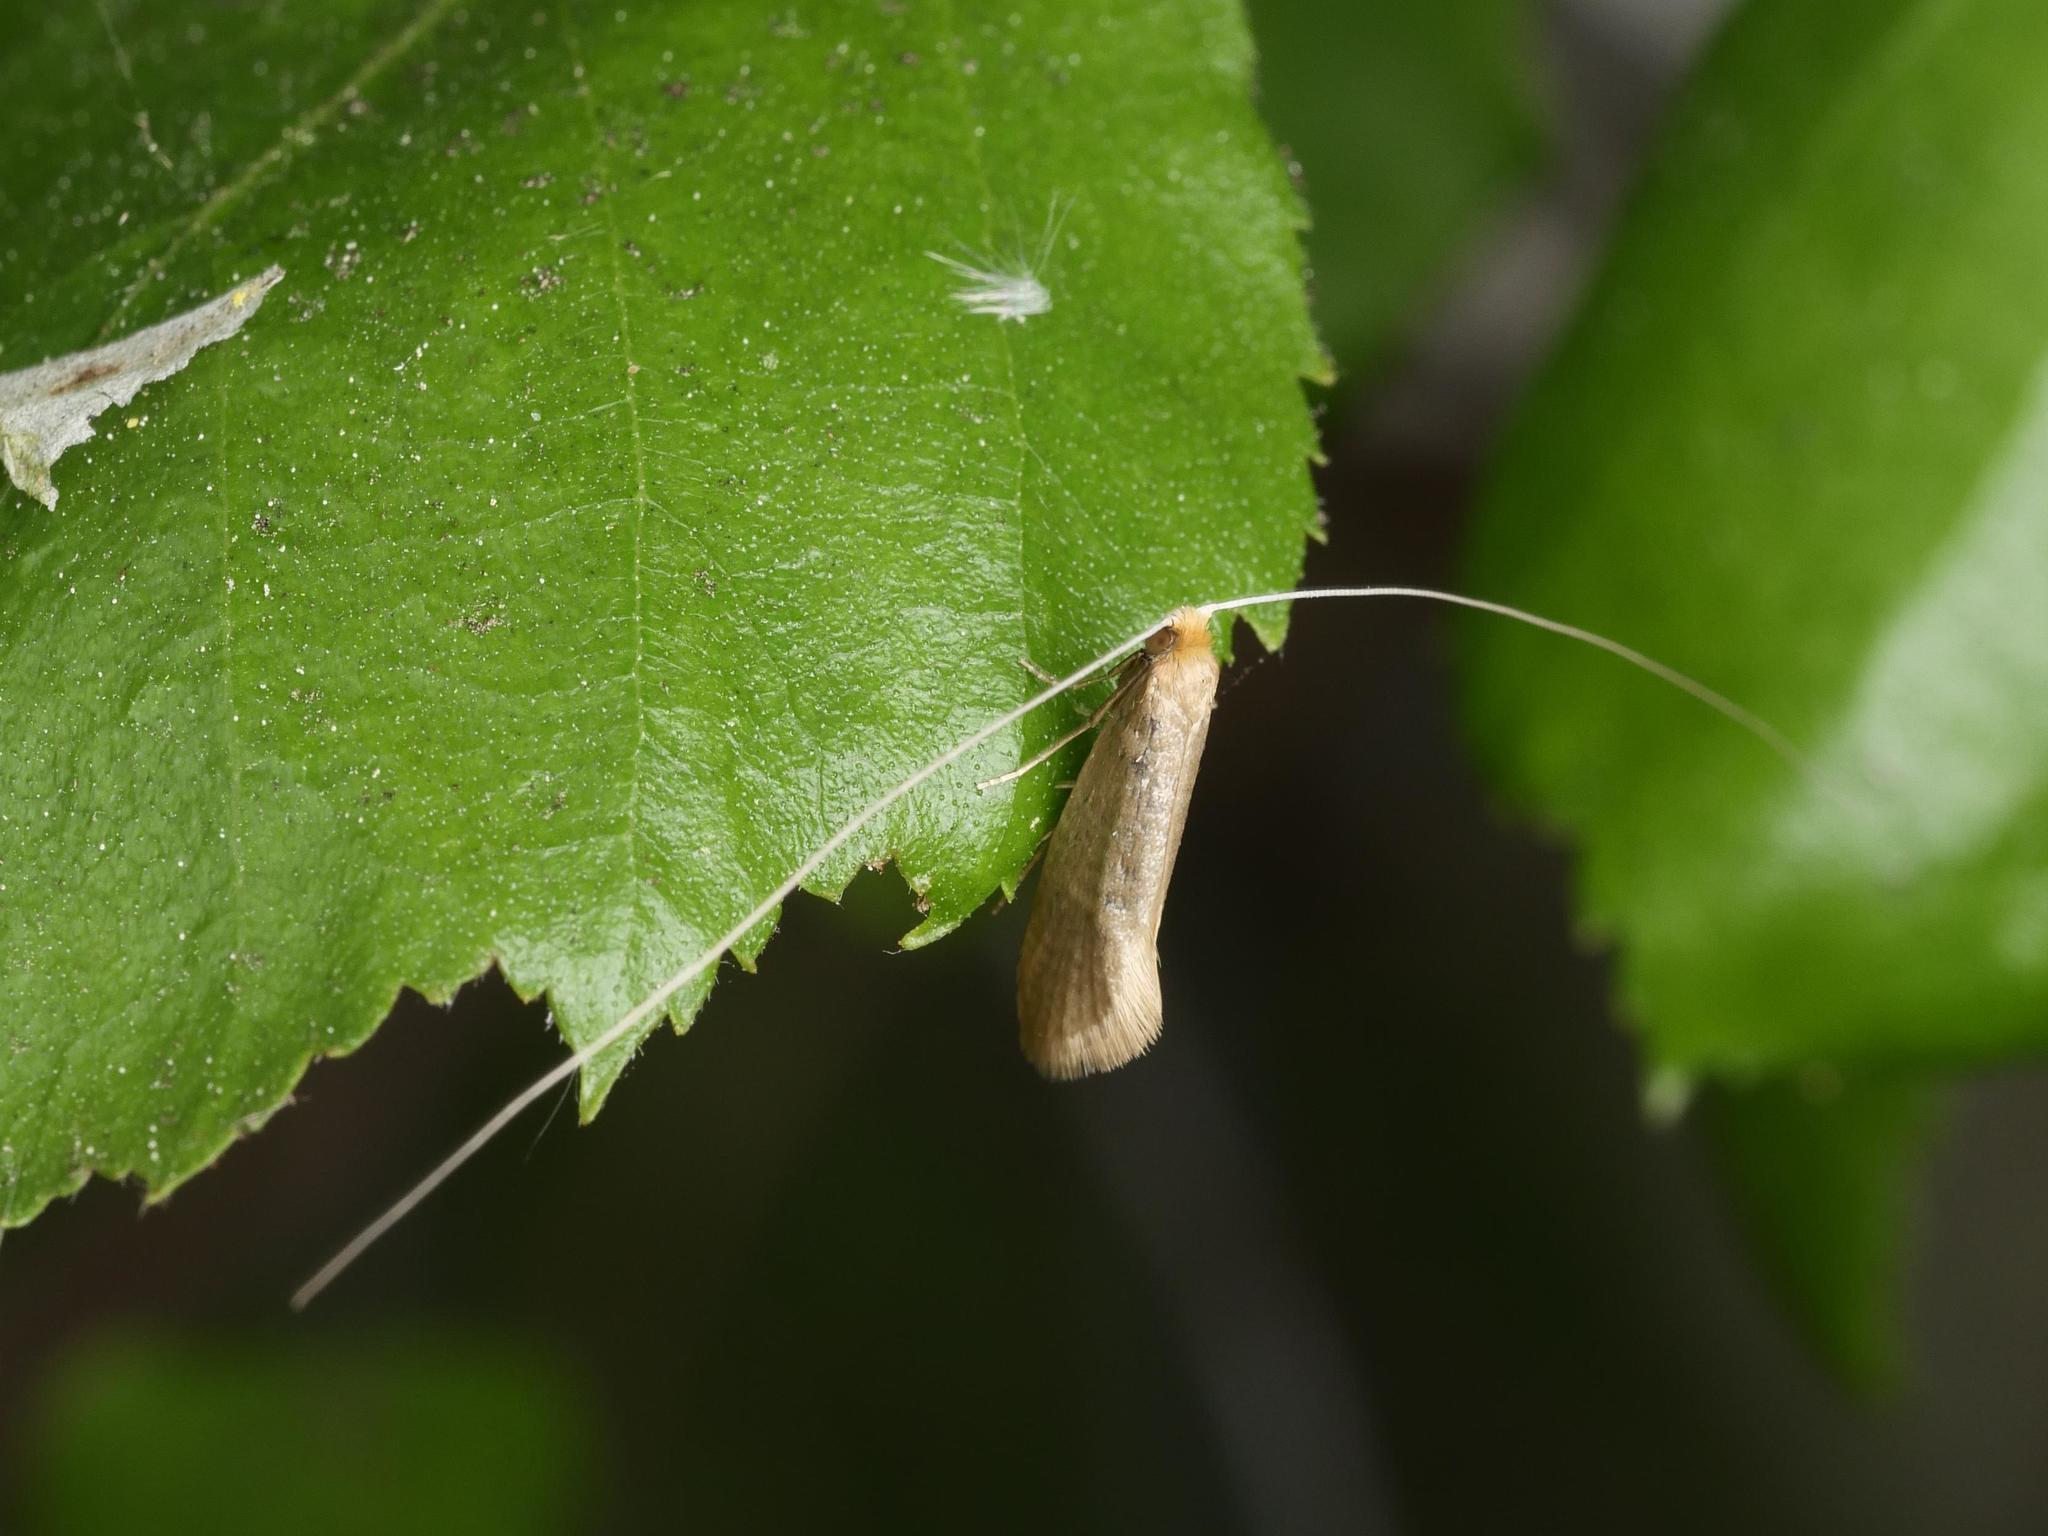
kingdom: Animalia
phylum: Arthropoda
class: Insecta
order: Lepidoptera
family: Adelidae
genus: Nematopogon
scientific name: Nematopogon swammerdamella
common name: Large long-horn
